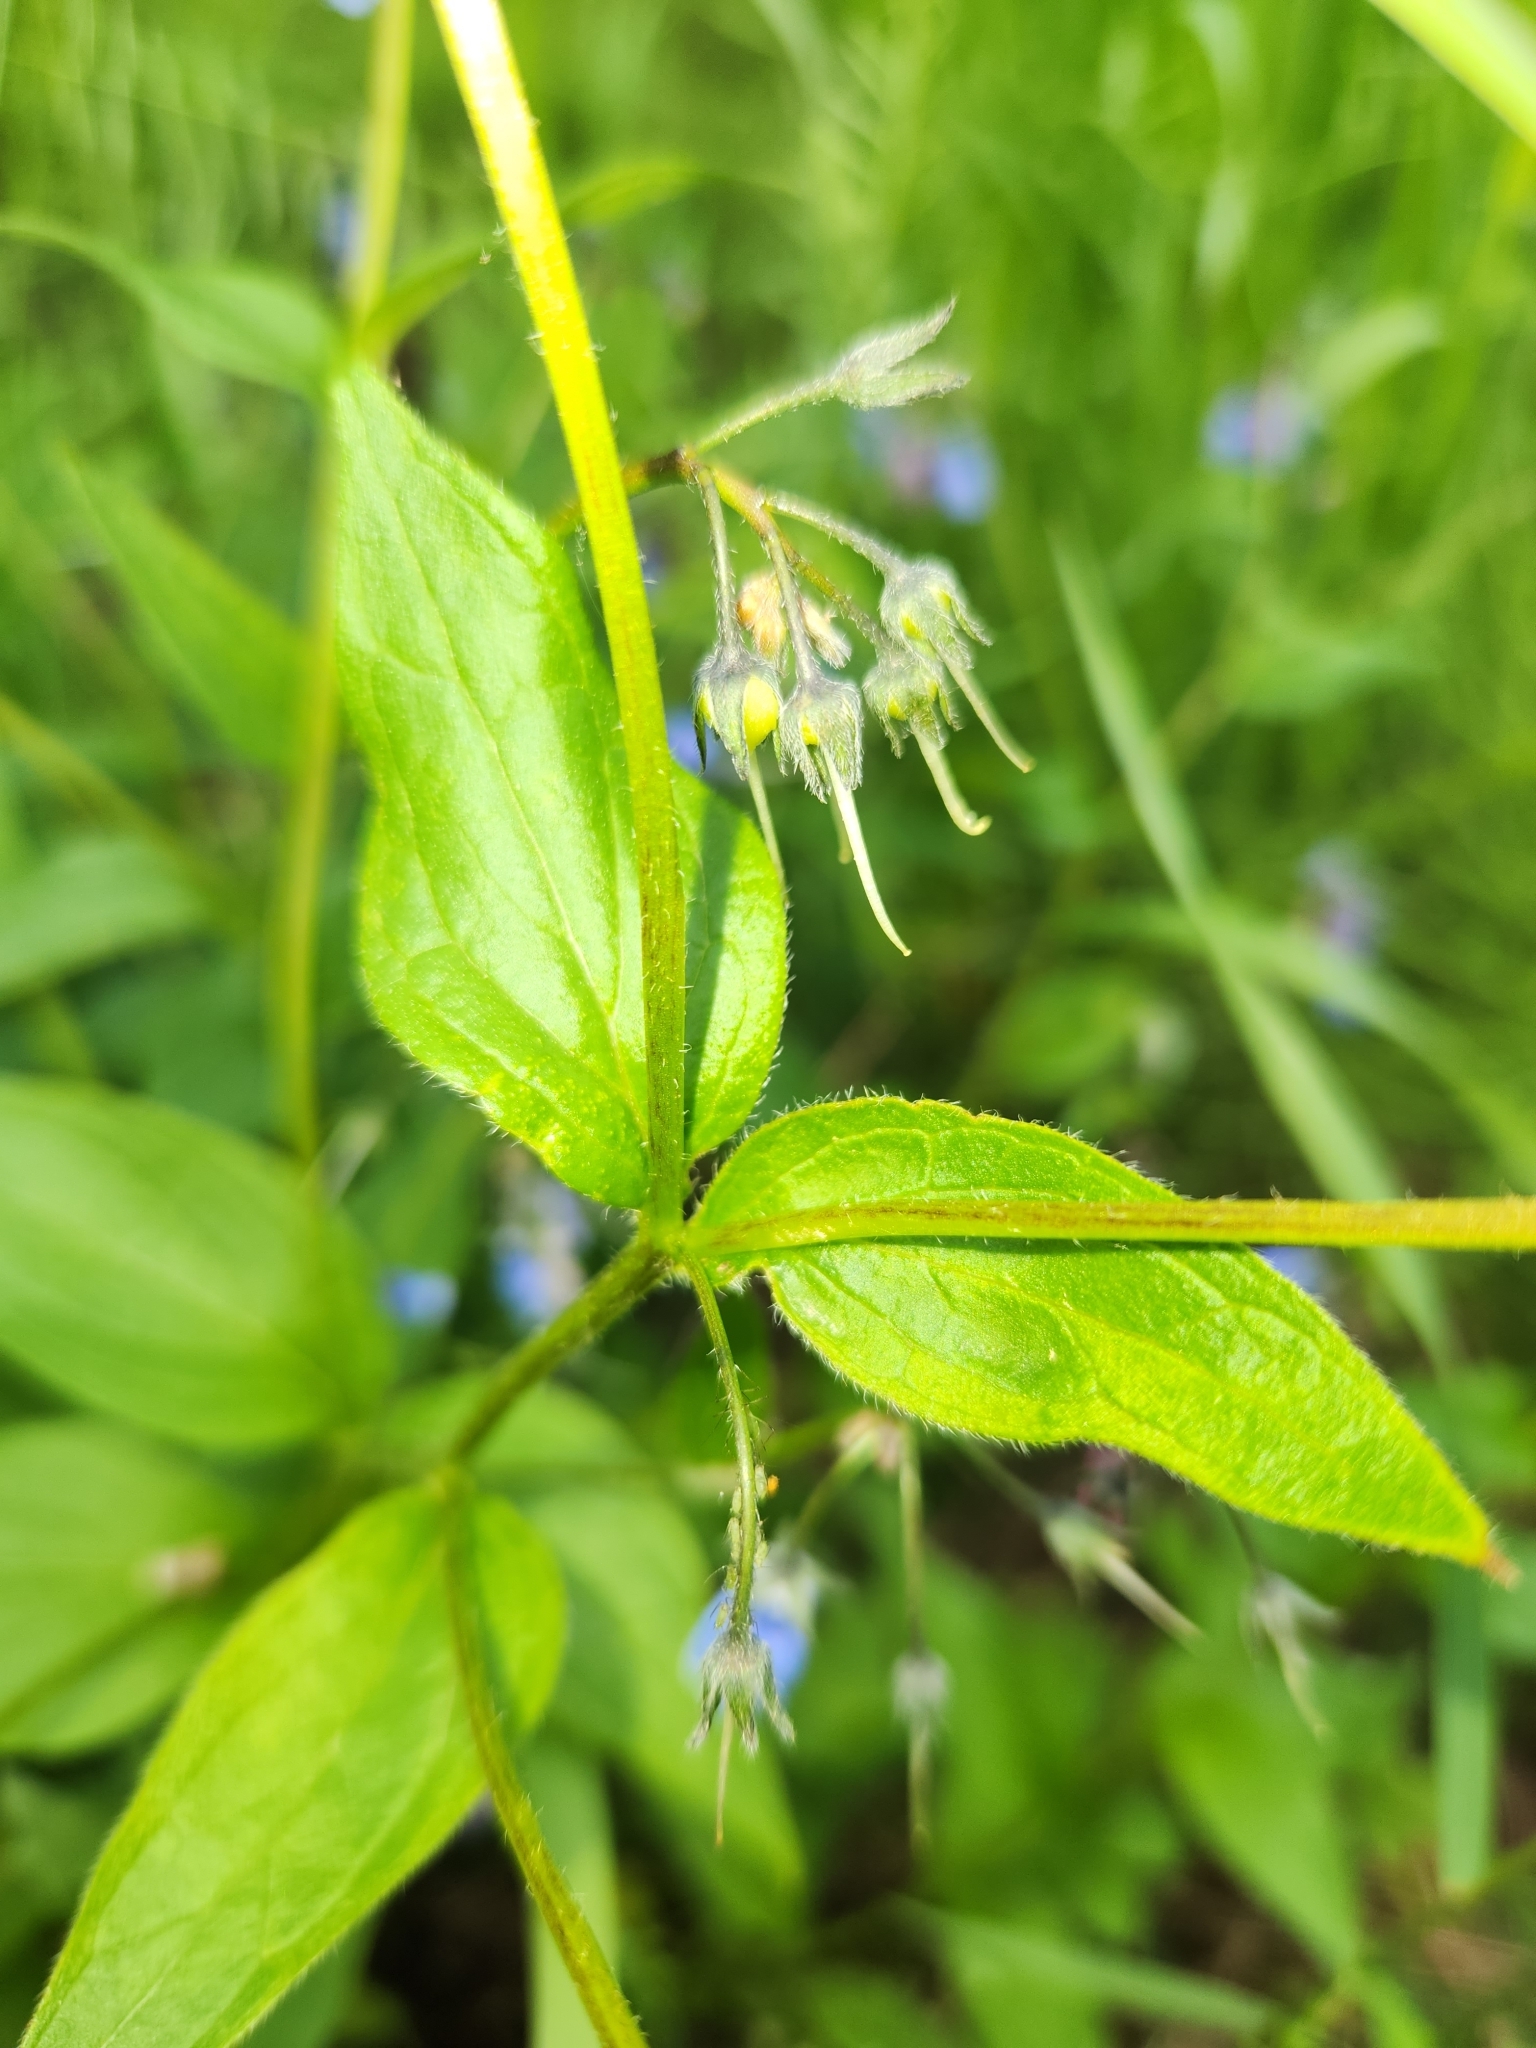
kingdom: Plantae
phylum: Tracheophyta
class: Magnoliopsida
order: Boraginales
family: Boraginaceae
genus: Mertensia
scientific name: Mertensia paniculata
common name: Panicled bluebells
